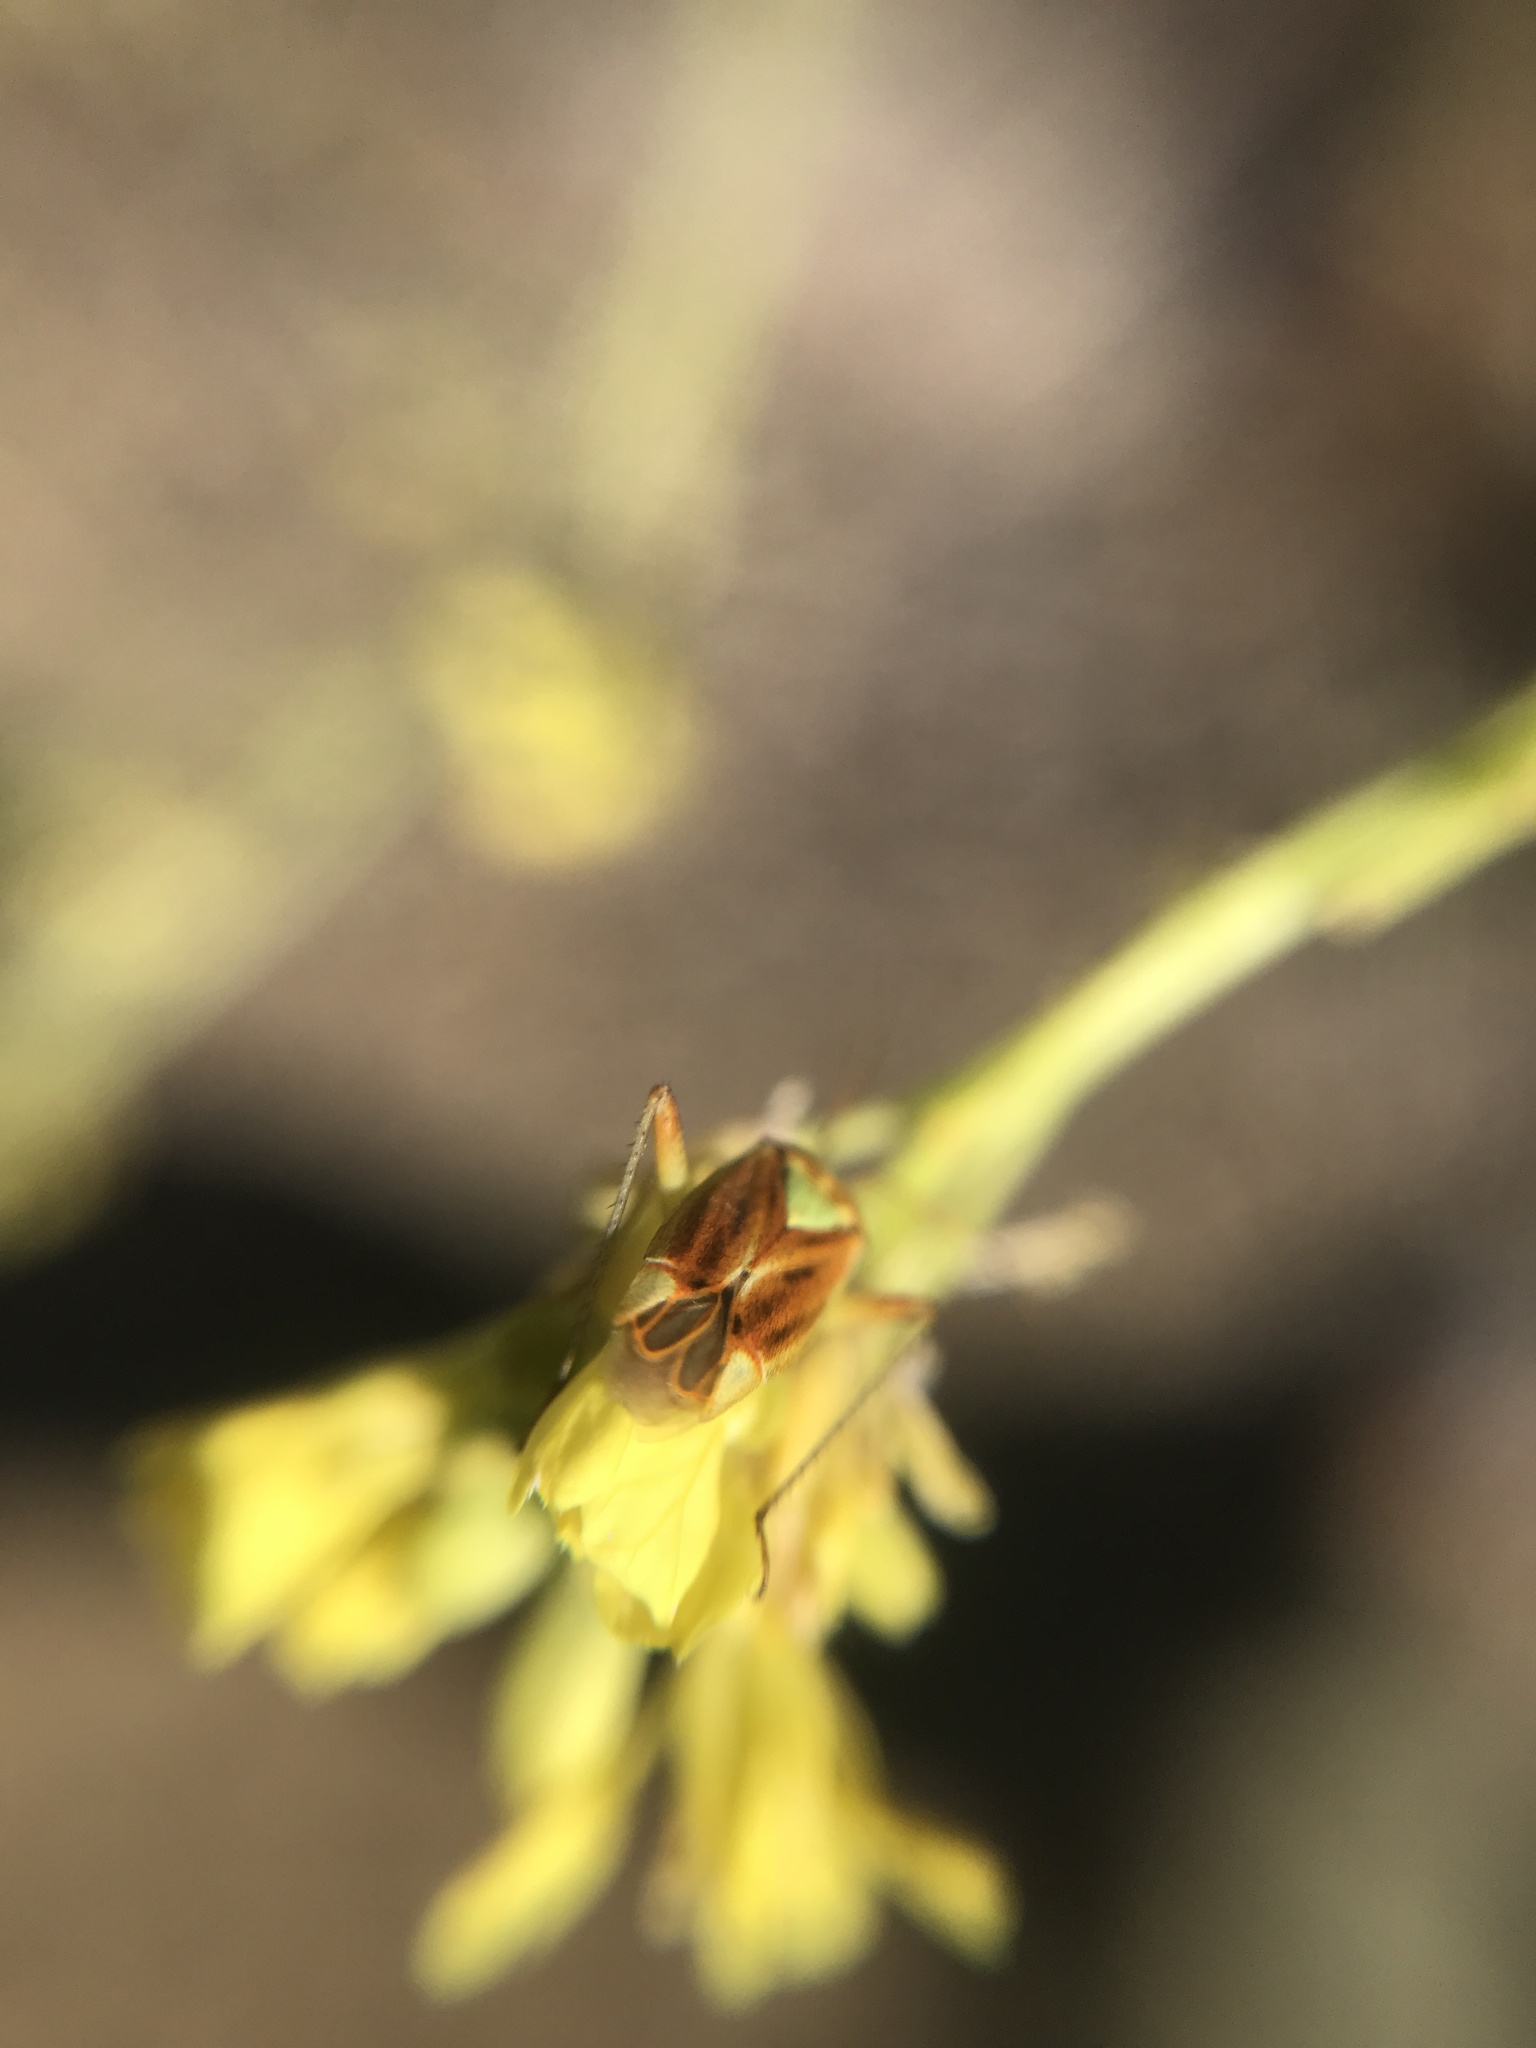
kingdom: Animalia
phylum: Arthropoda
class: Insecta
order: Hemiptera
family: Miridae
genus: Closterotomus
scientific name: Closterotomus norvegicus
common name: Plant bug
